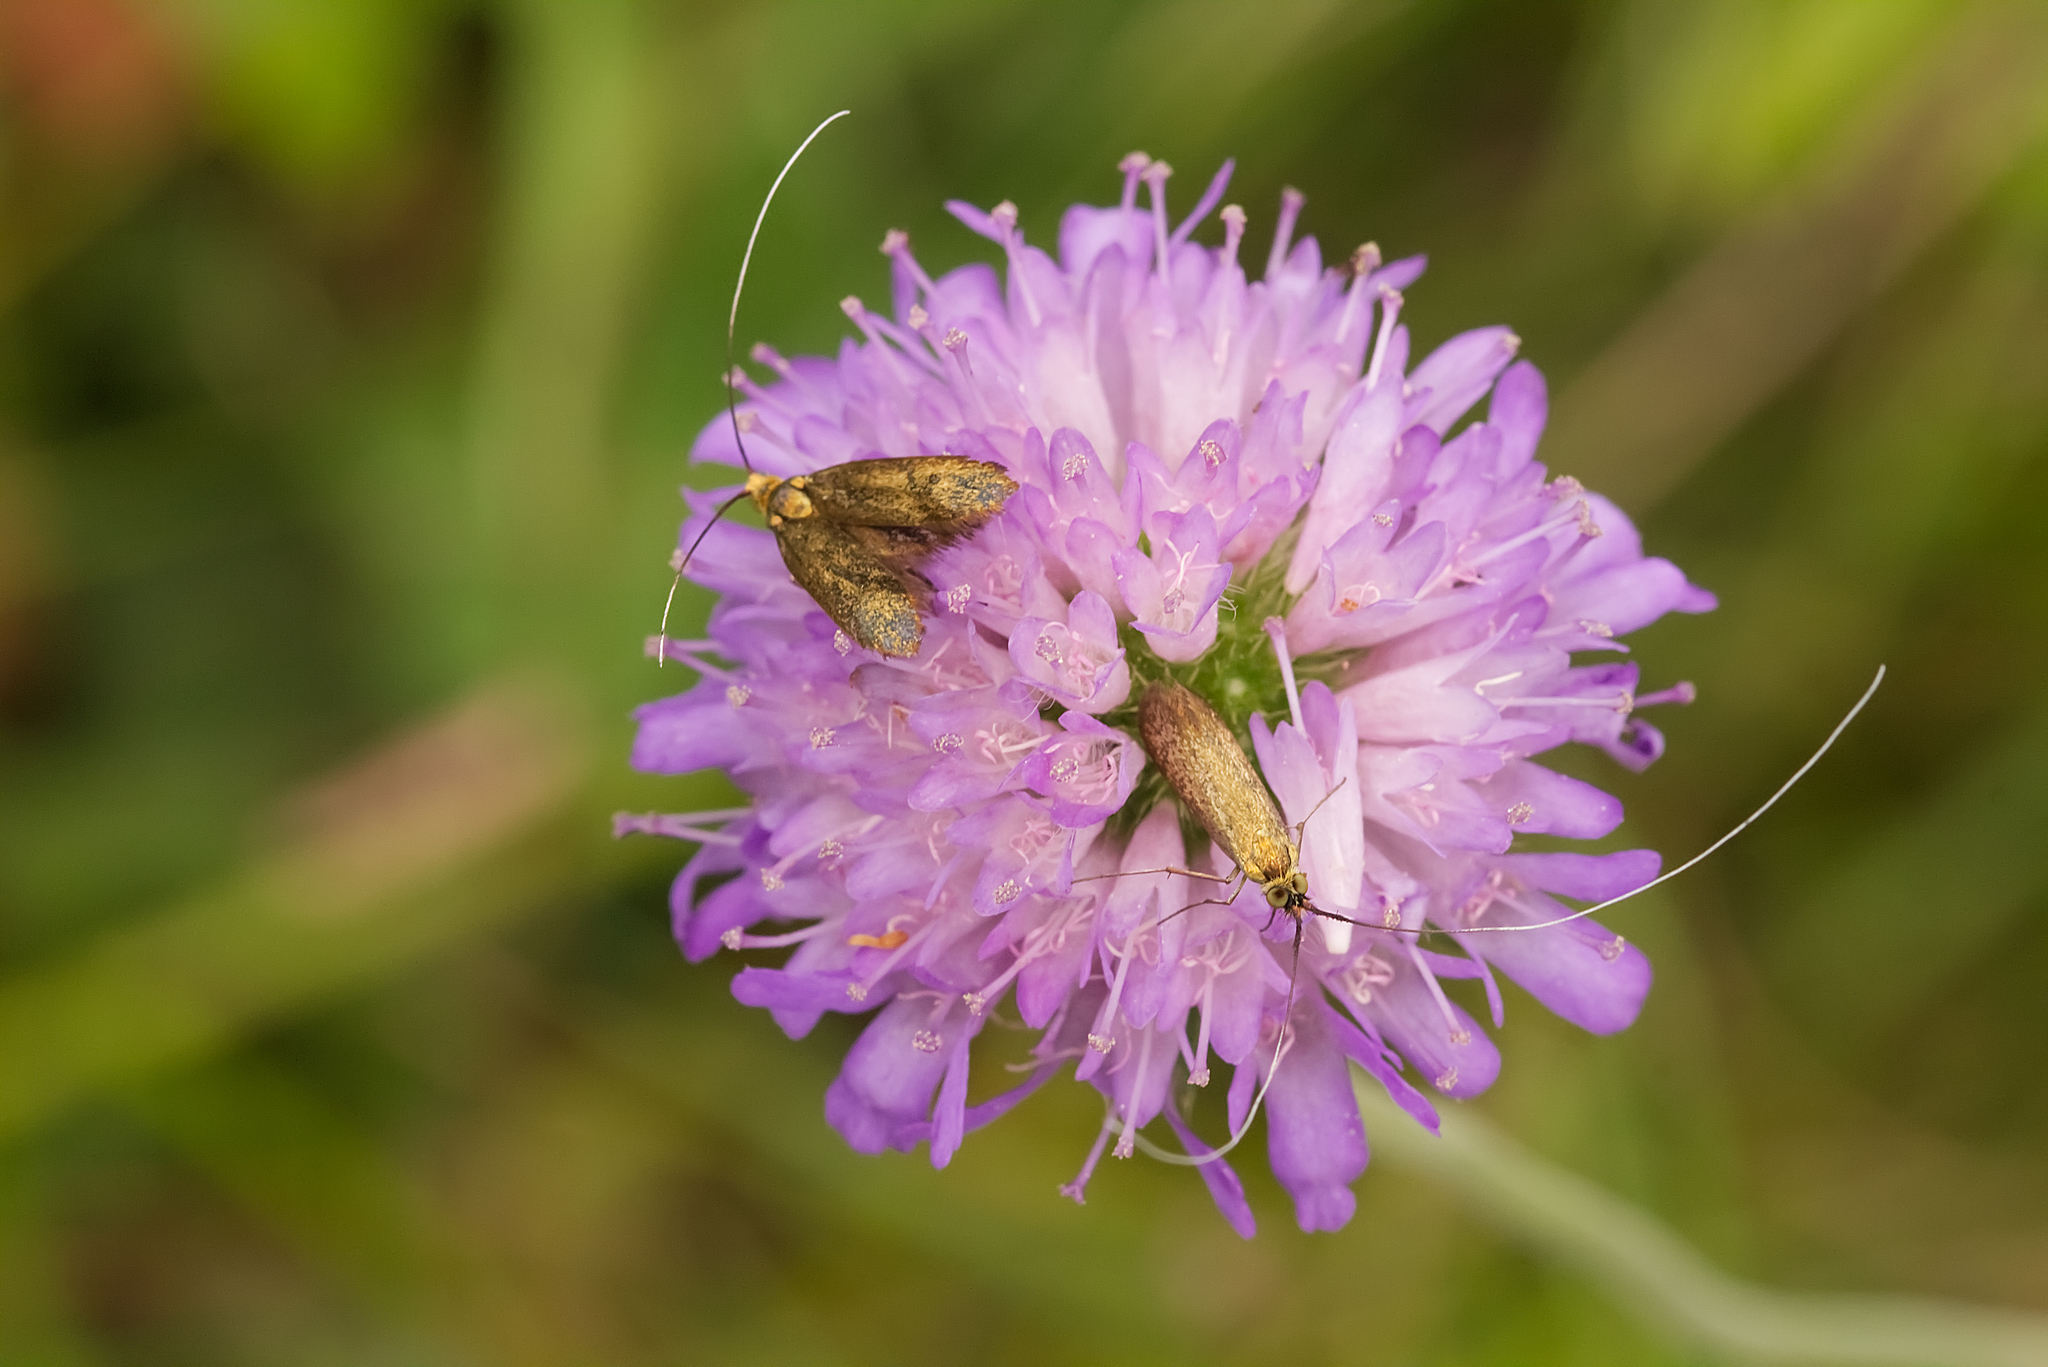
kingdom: Animalia
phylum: Arthropoda
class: Insecta
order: Lepidoptera
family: Adelidae
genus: Nemophora
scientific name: Nemophora metallica
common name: Brassy long-horn
